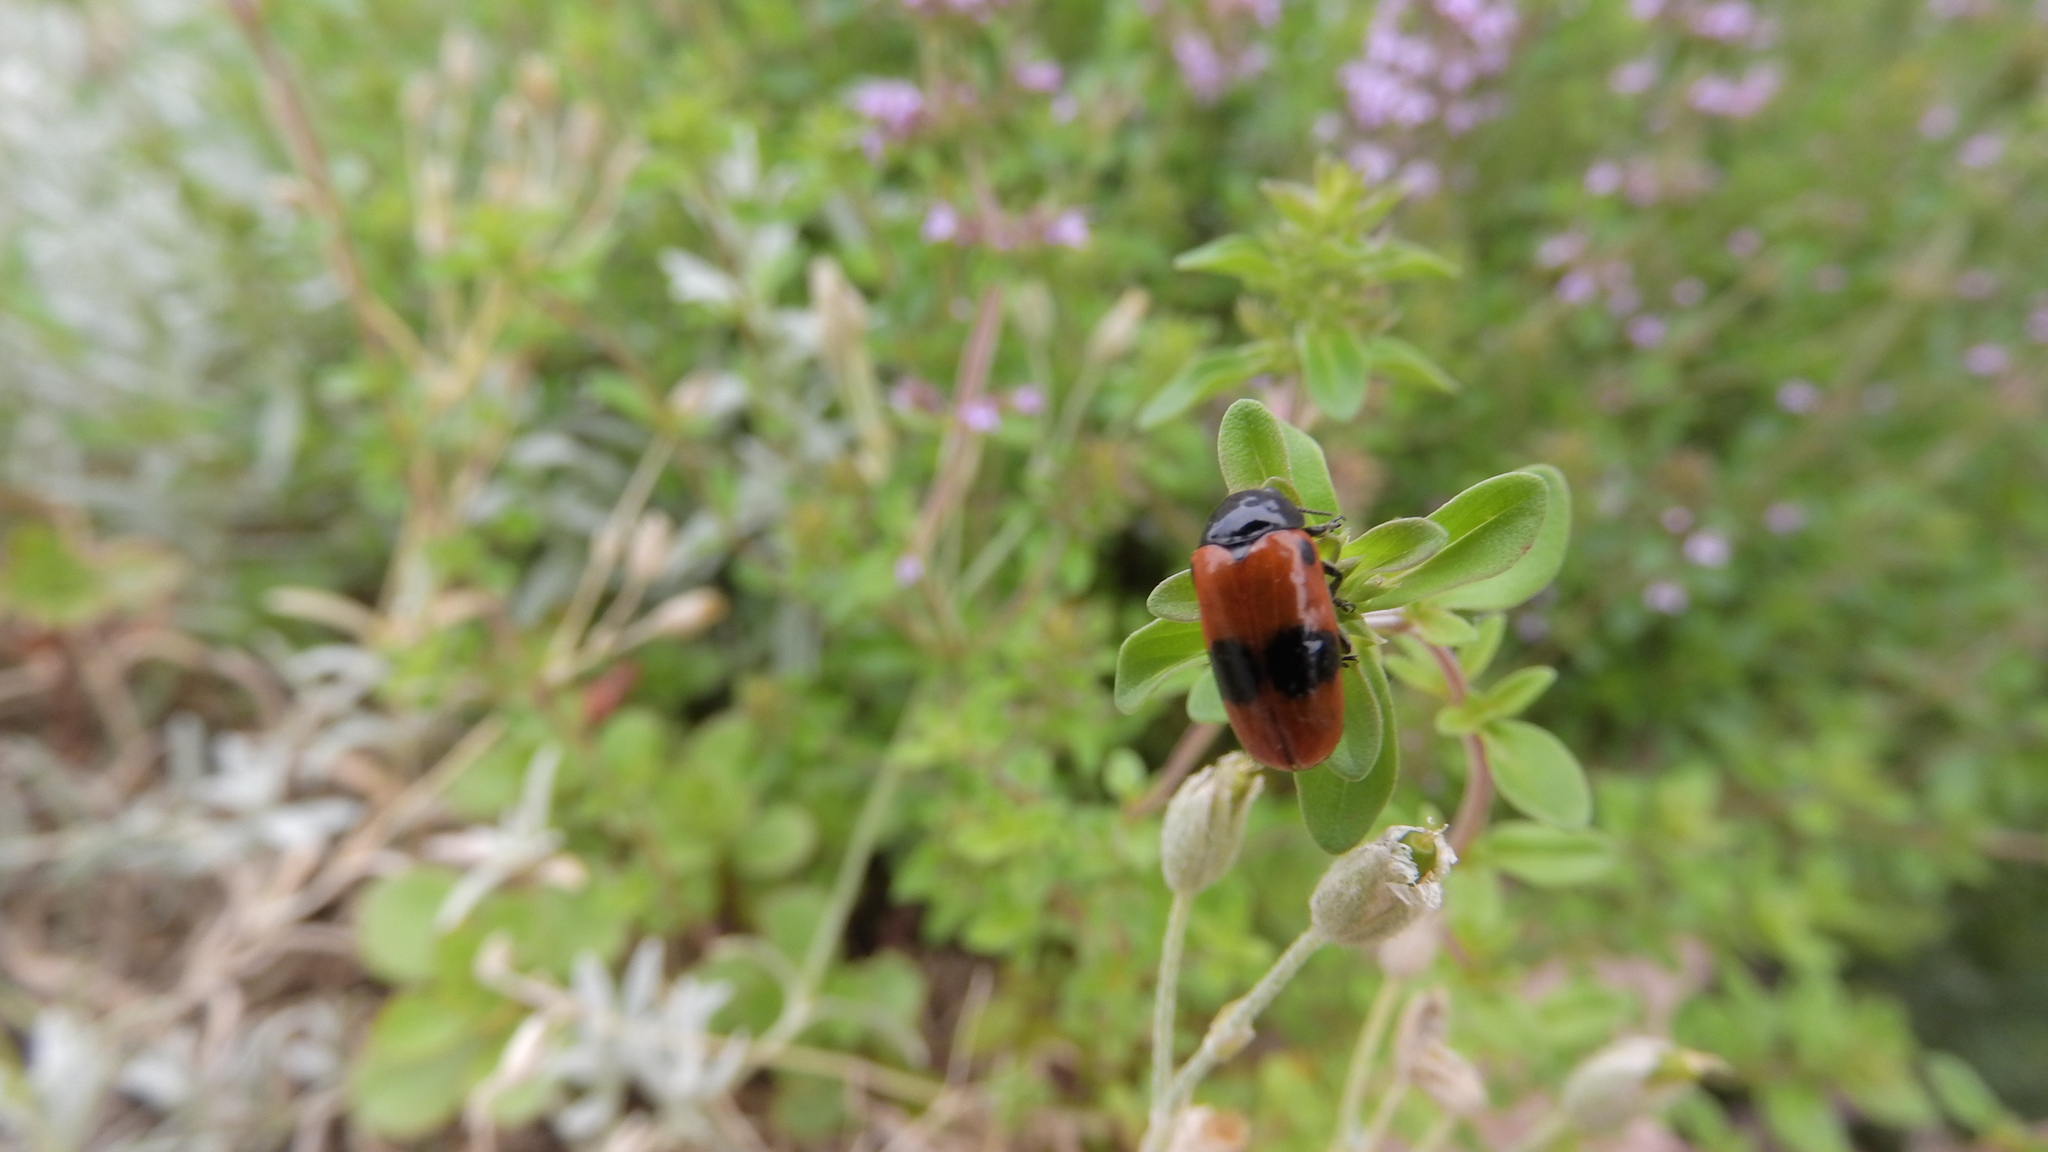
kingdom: Animalia
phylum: Arthropoda
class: Insecta
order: Coleoptera
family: Chrysomelidae
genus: Clytra
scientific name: Clytra laeviuscula
